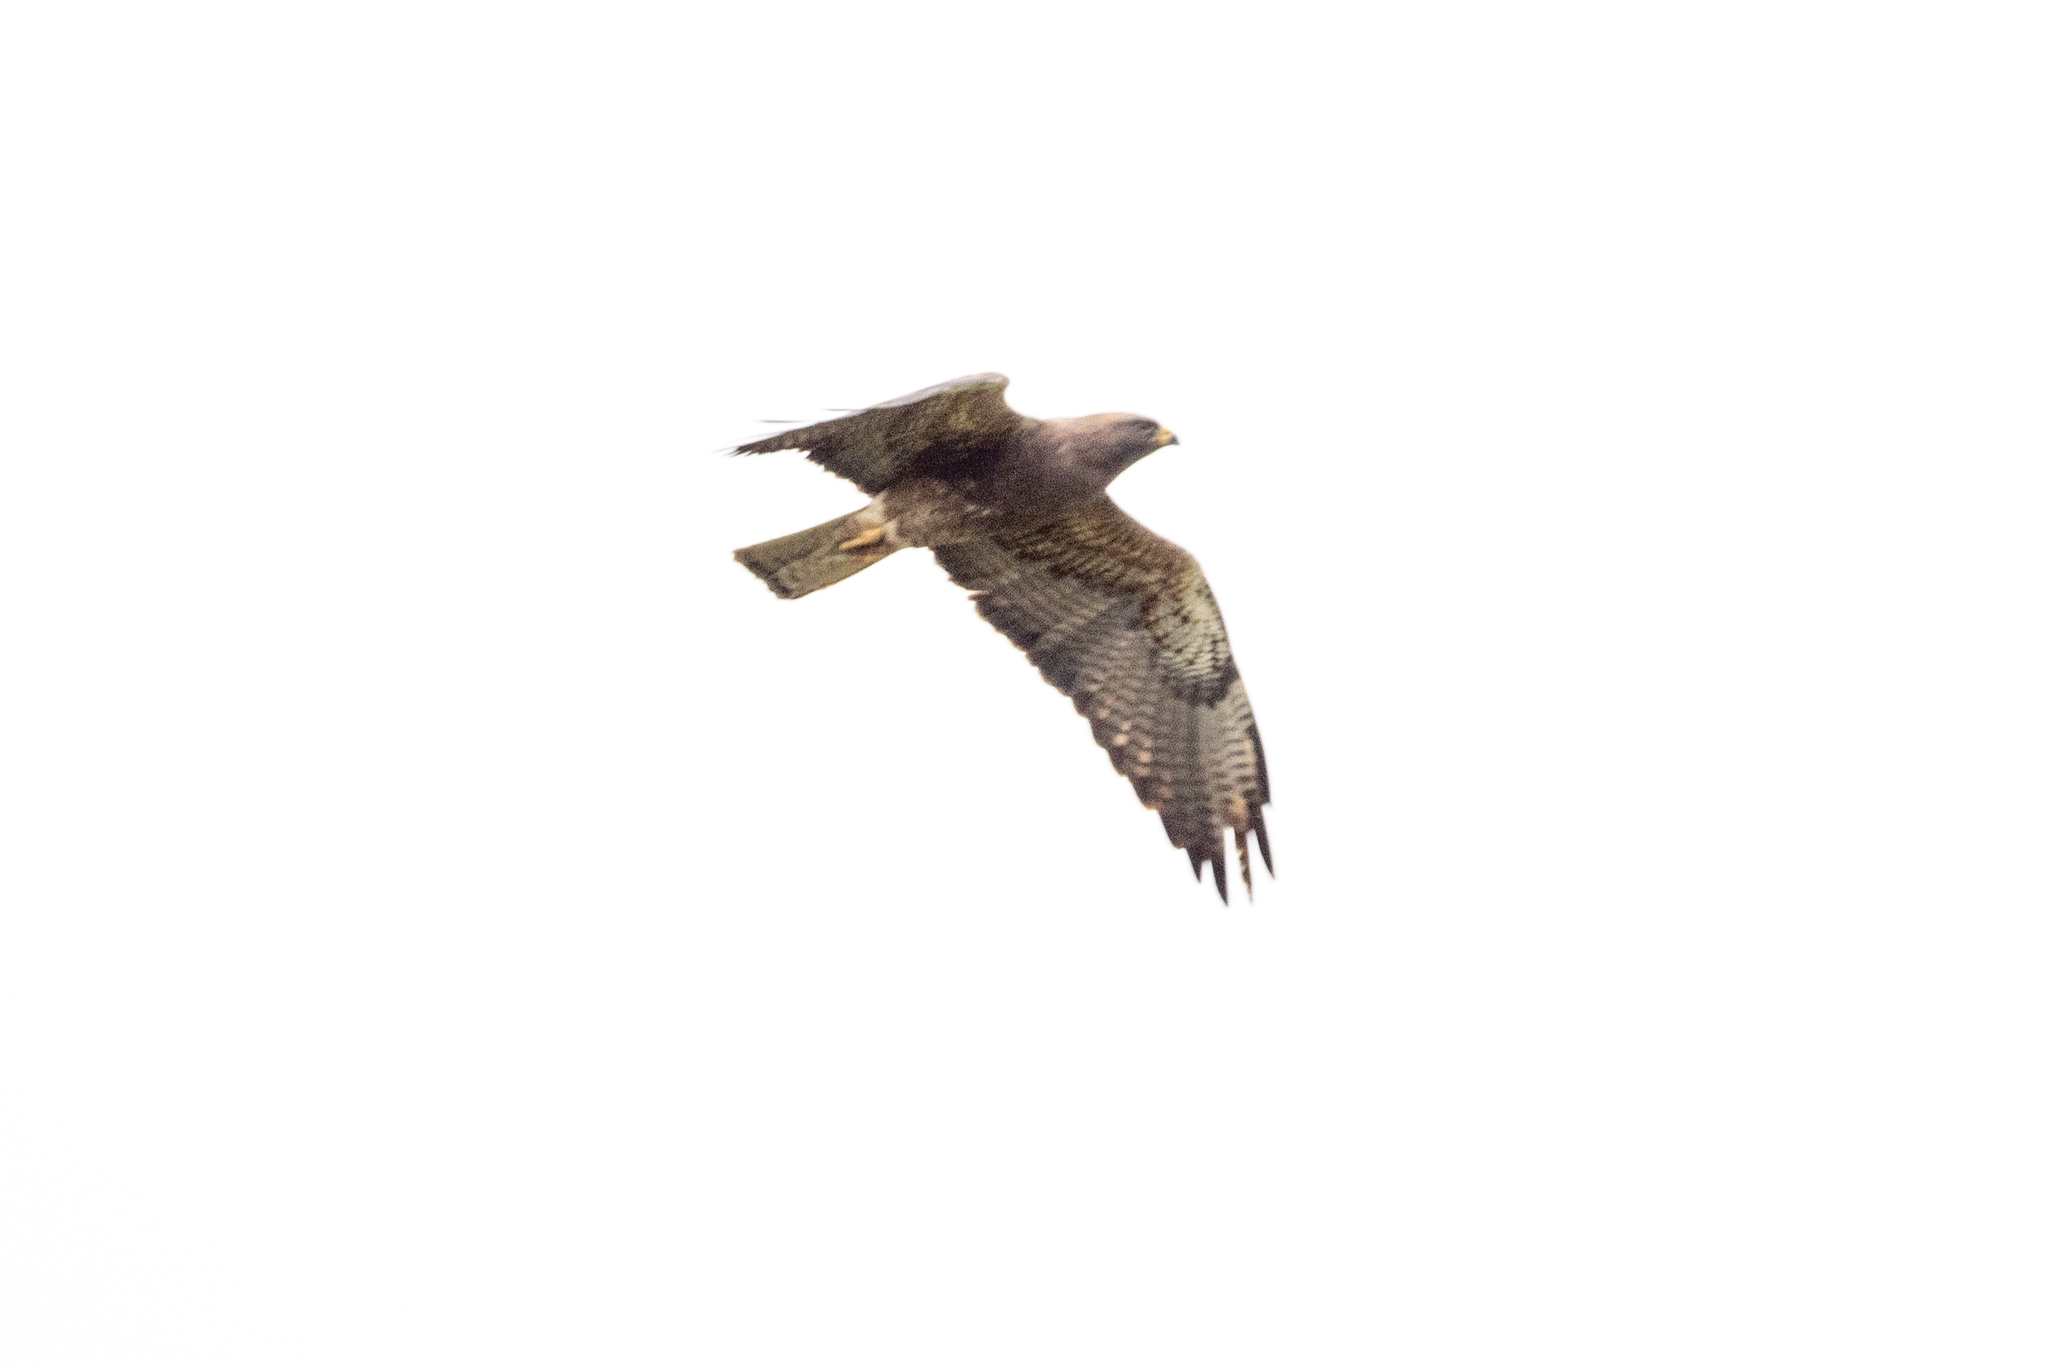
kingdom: Animalia
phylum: Chordata
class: Aves
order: Accipitriformes
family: Accipitridae
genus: Buteo
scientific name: Buteo swainsoni
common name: Swainson's hawk
